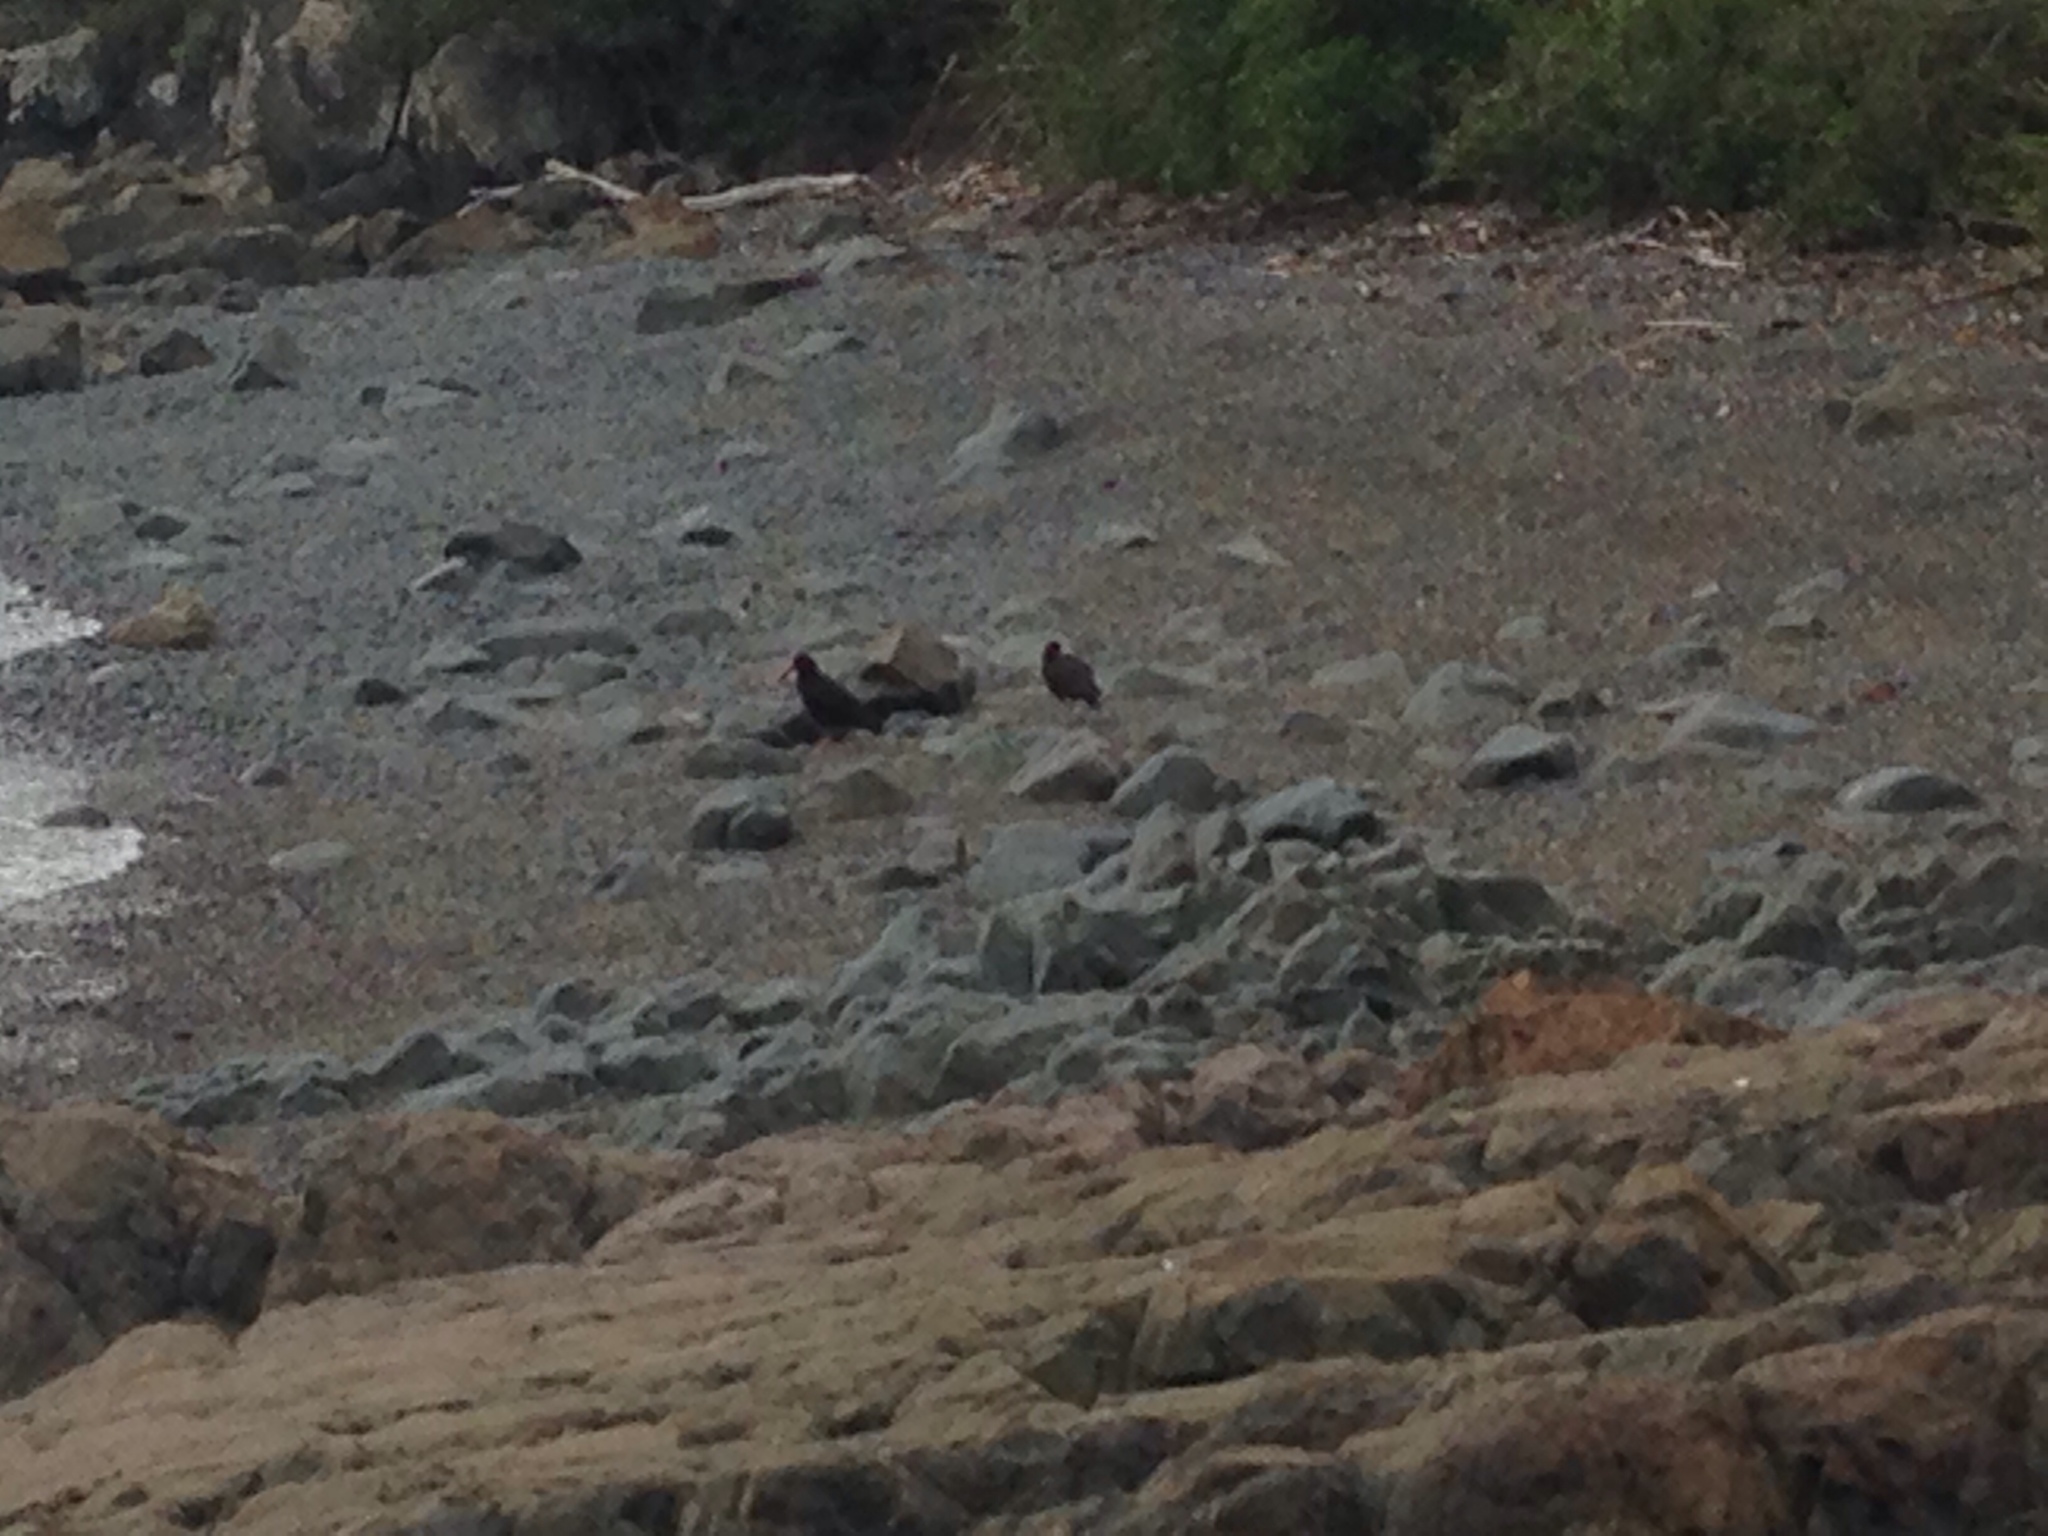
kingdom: Animalia
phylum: Chordata
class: Aves
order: Charadriiformes
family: Haematopodidae
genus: Haematopus
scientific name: Haematopus unicolor
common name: Variable oystercatcher
